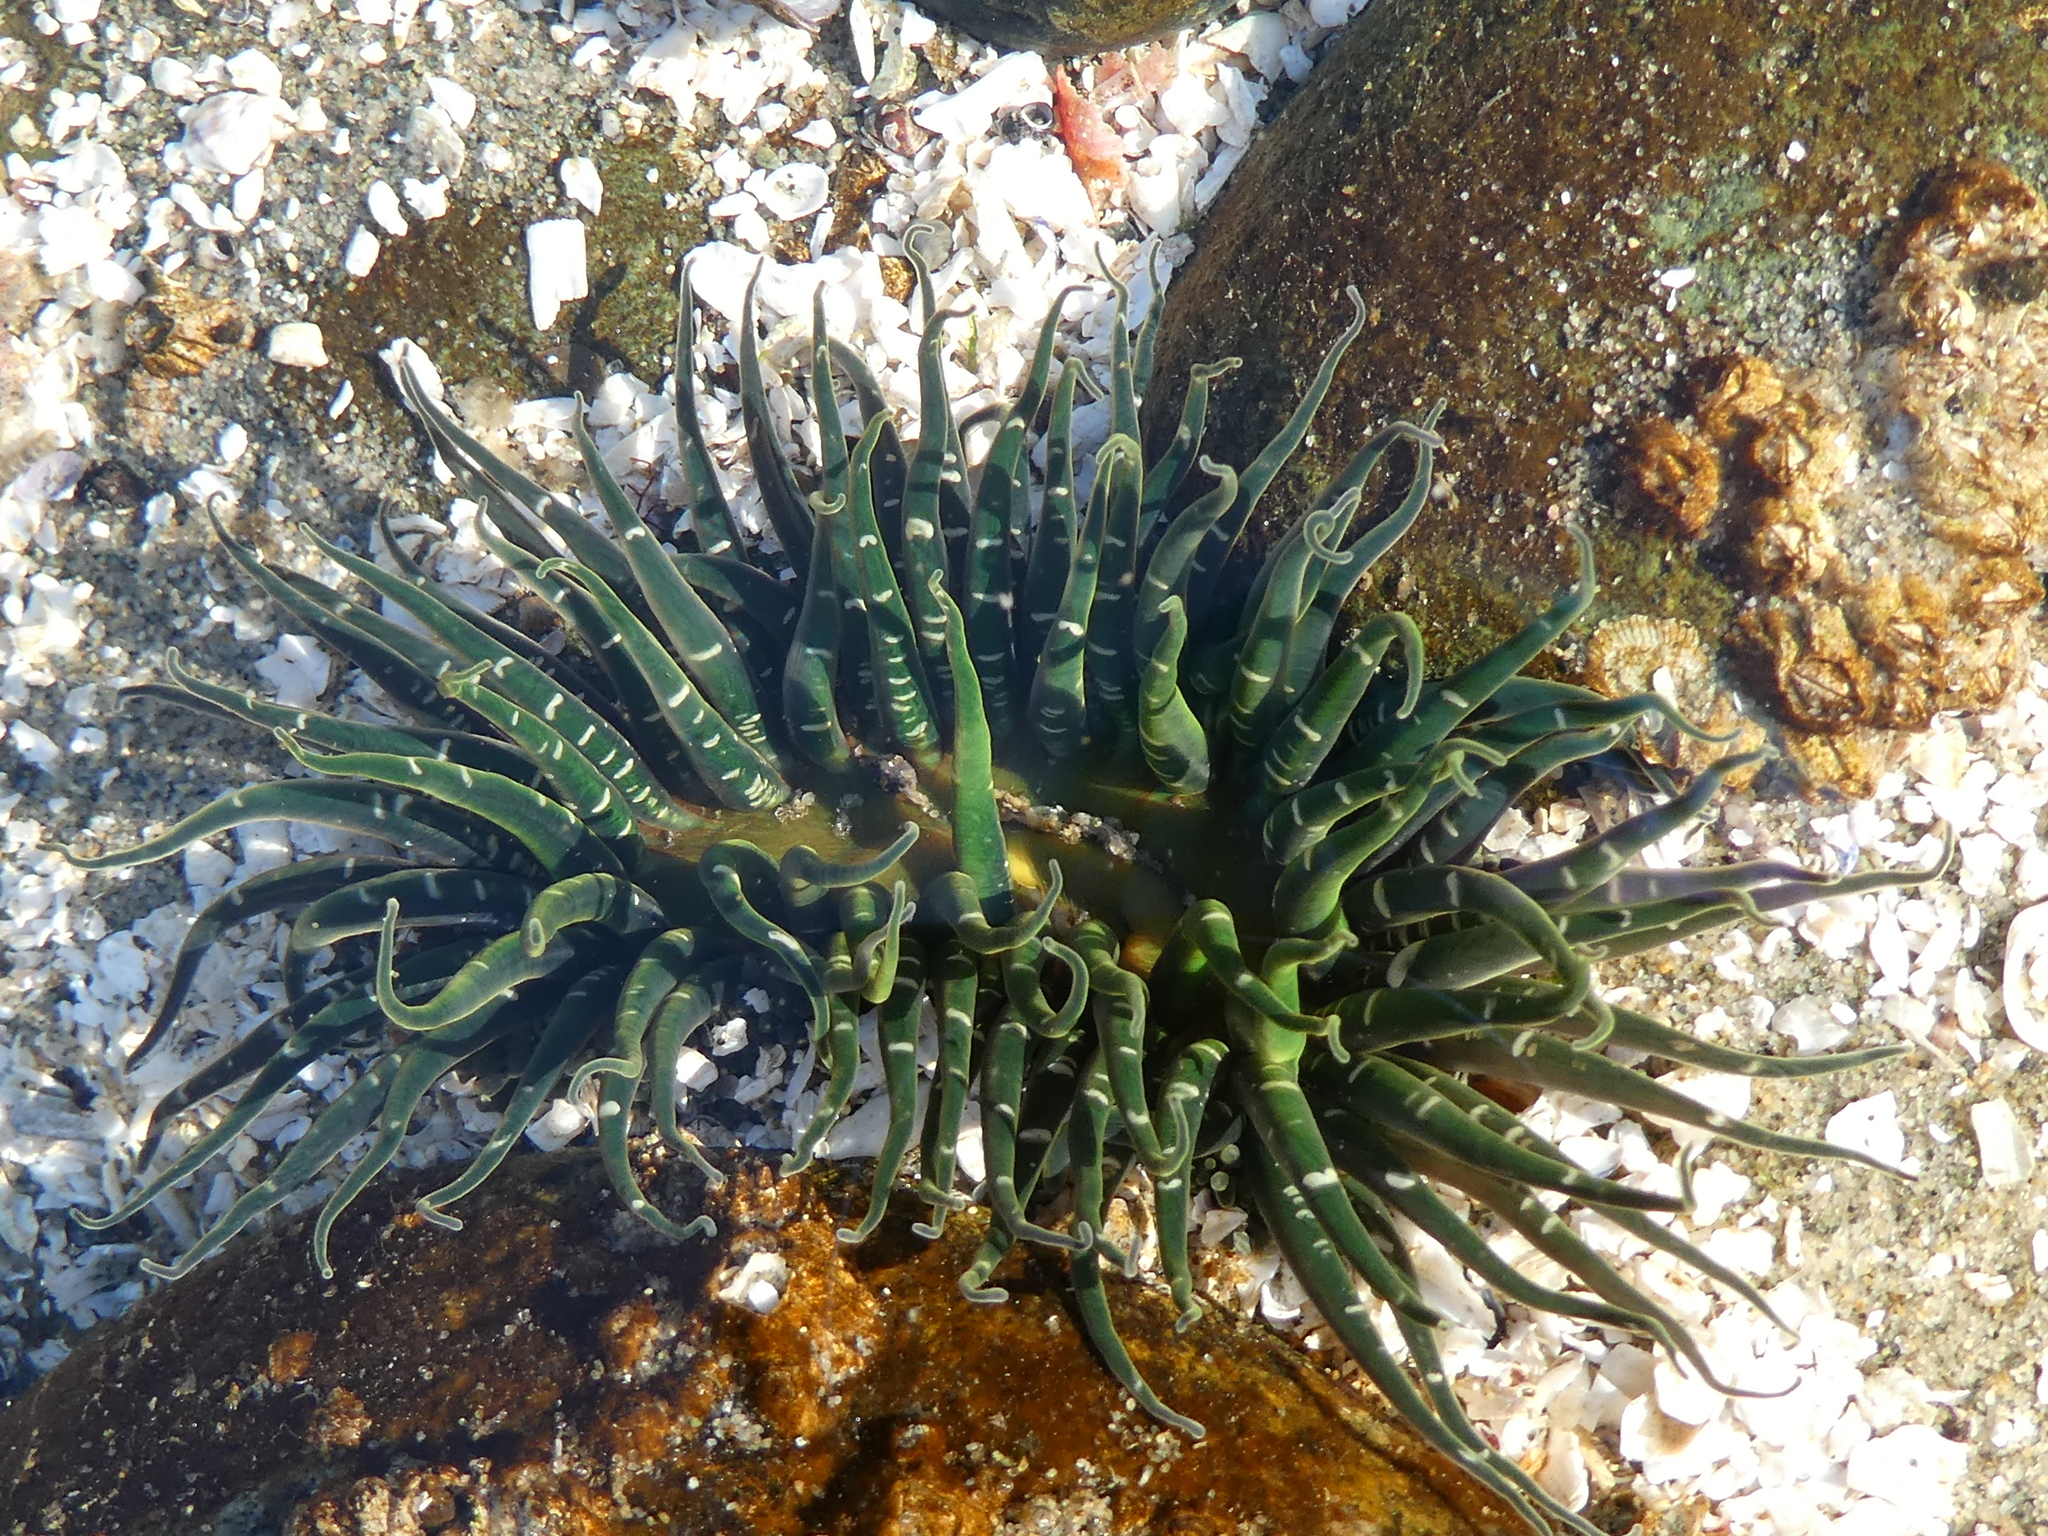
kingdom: Animalia
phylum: Cnidaria
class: Anthozoa
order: Actiniaria
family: Actiniidae
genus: Anthopleura
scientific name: Anthopleura artemisia
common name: Buried sea anemone
